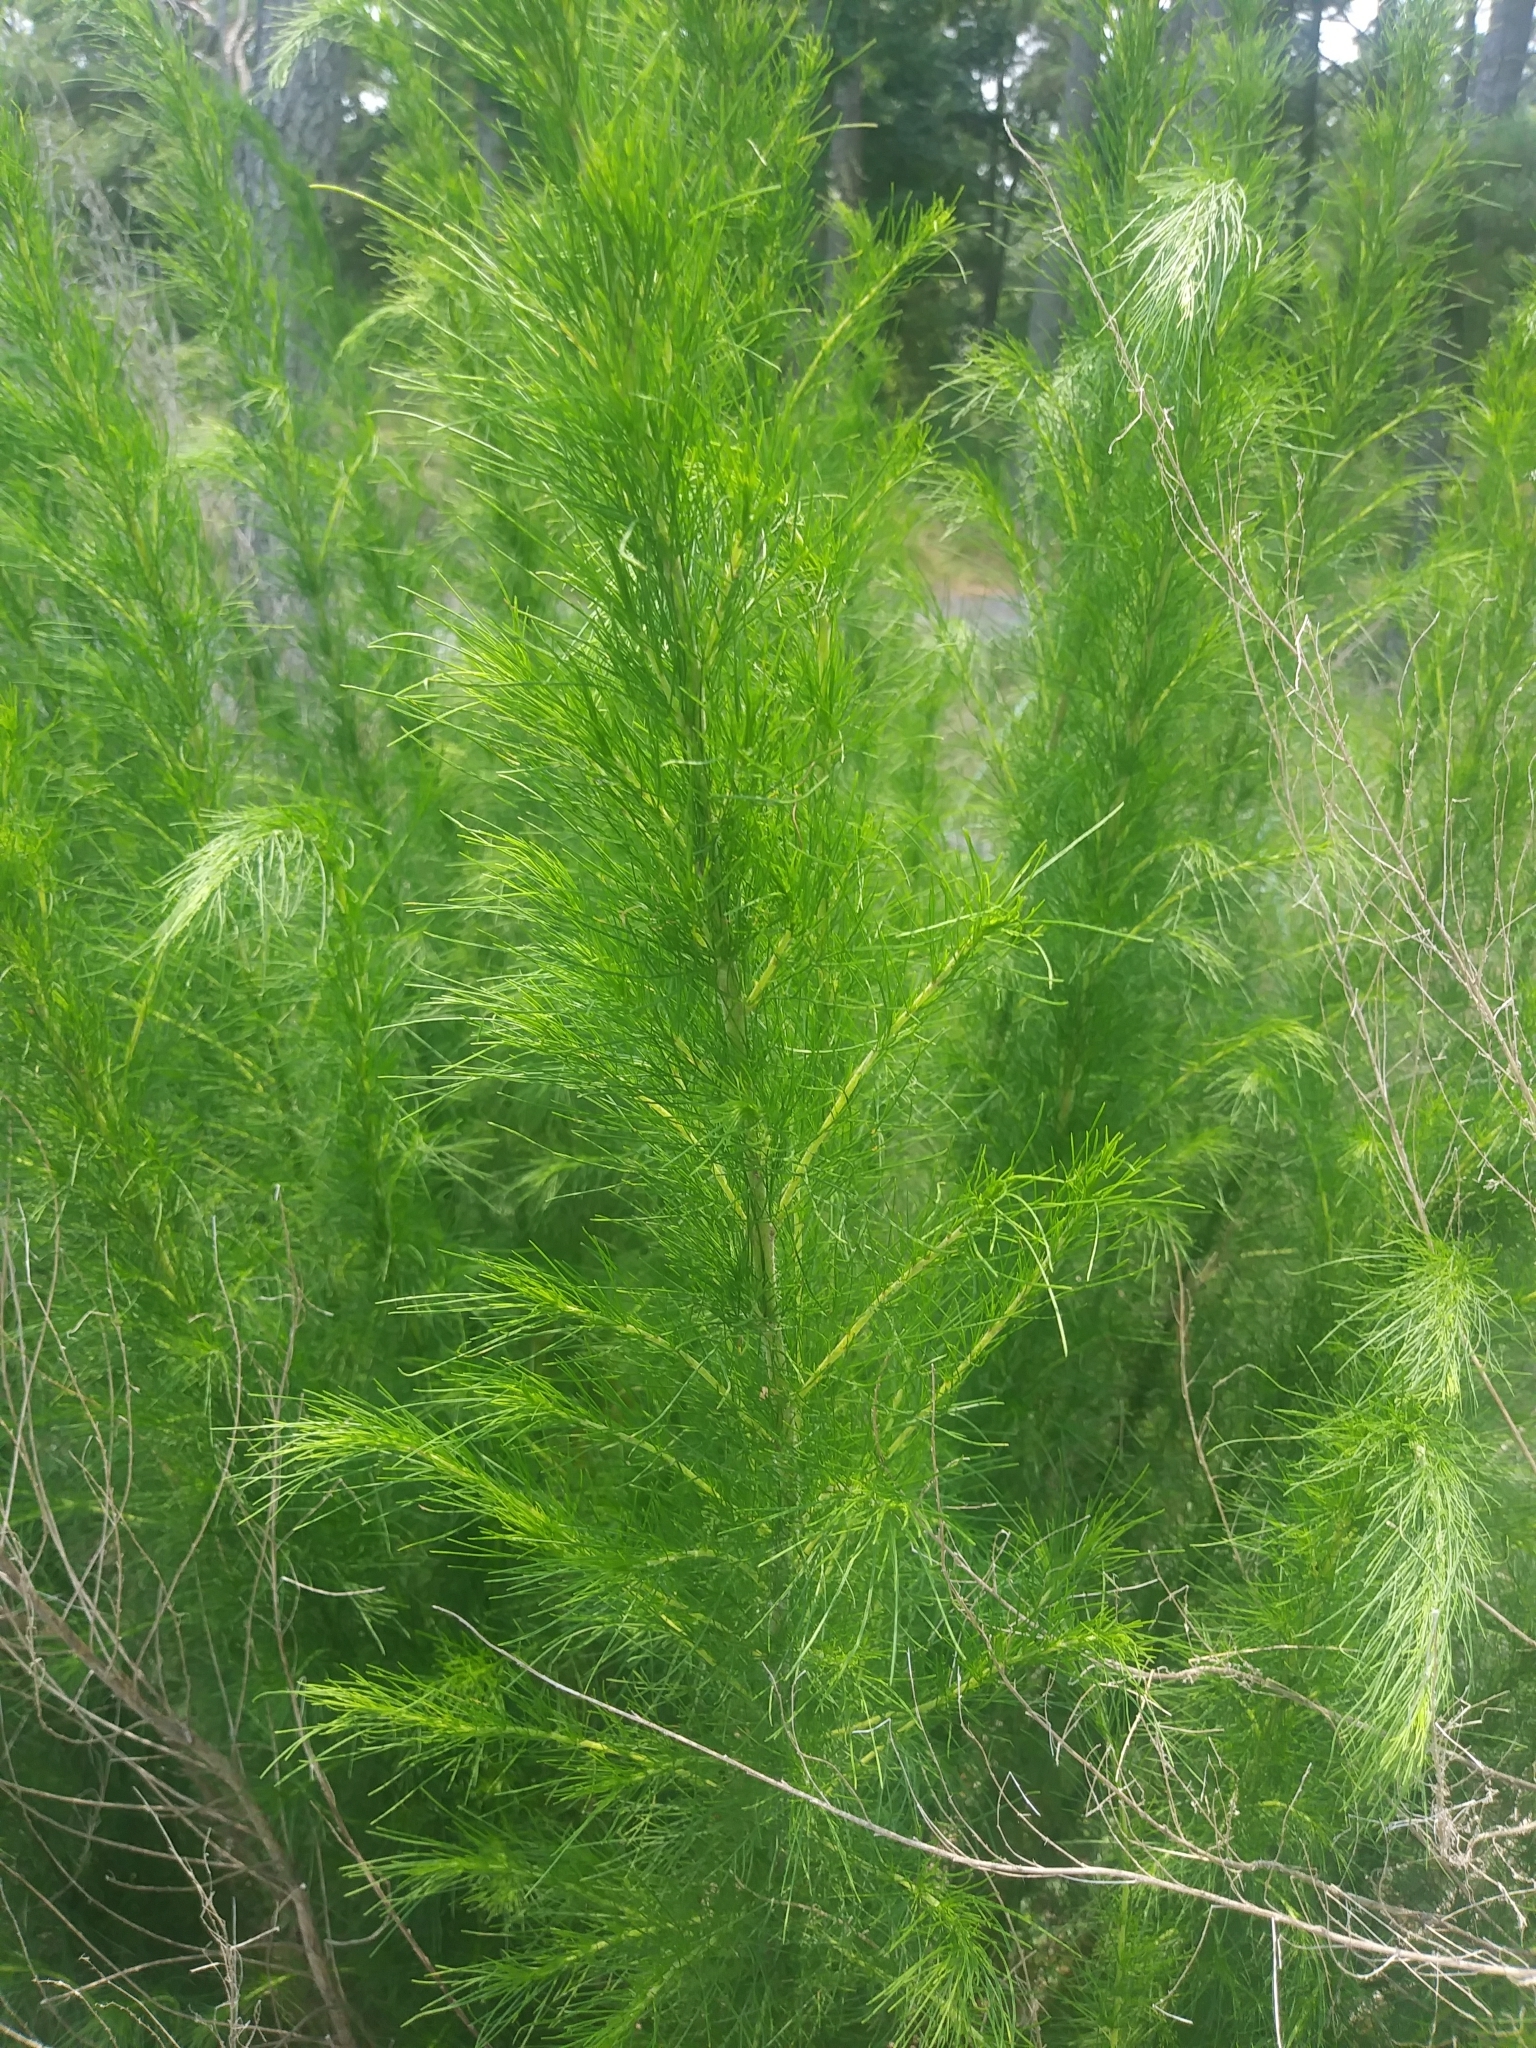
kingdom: Plantae
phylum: Tracheophyta
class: Magnoliopsida
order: Asterales
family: Asteraceae
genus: Eupatorium
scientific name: Eupatorium capillifolium
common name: Dog-fennel
